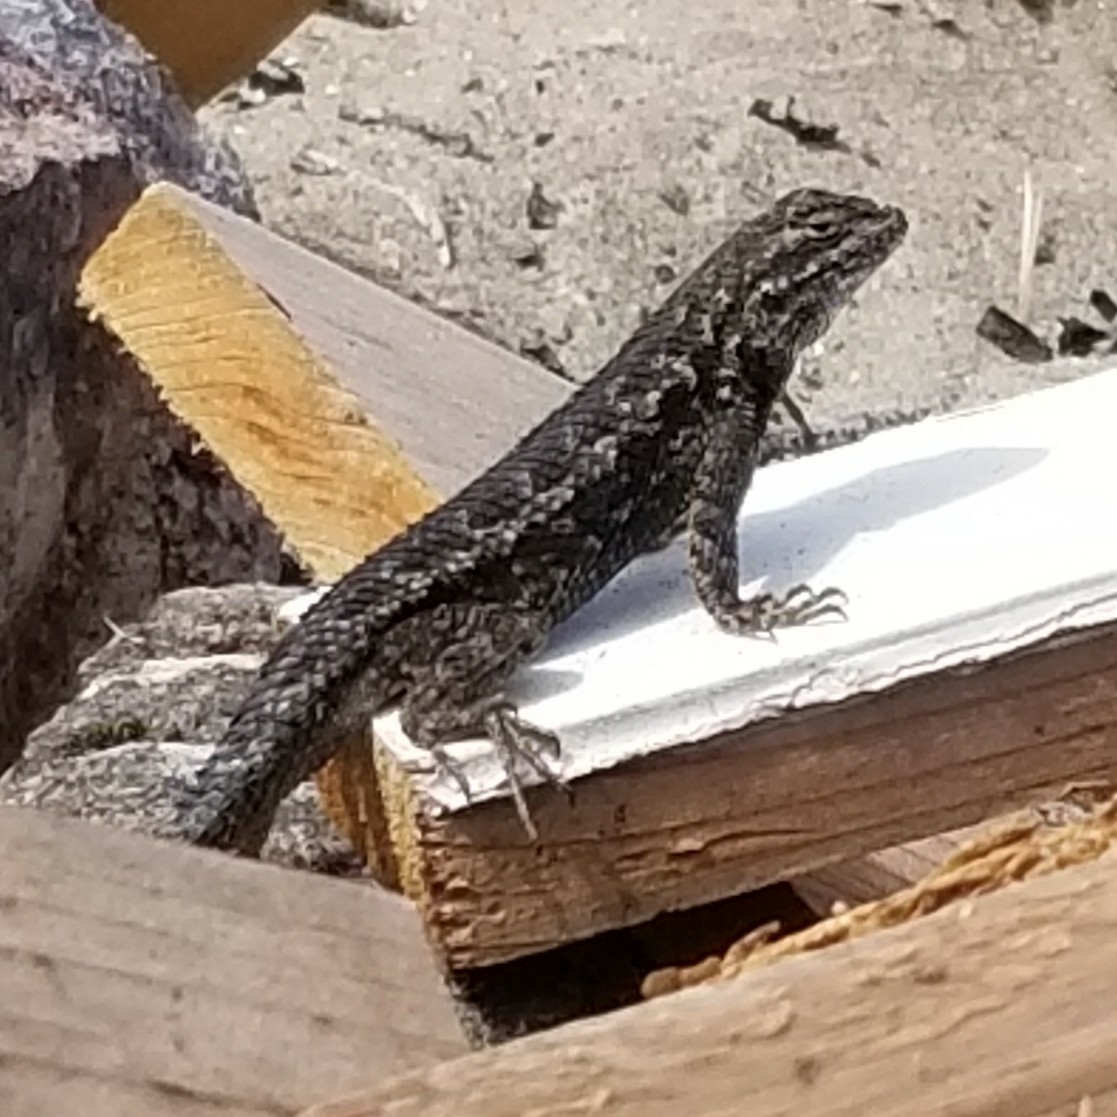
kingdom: Animalia
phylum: Chordata
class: Squamata
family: Phrynosomatidae
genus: Sceloporus
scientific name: Sceloporus occidentalis
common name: Western fence lizard
